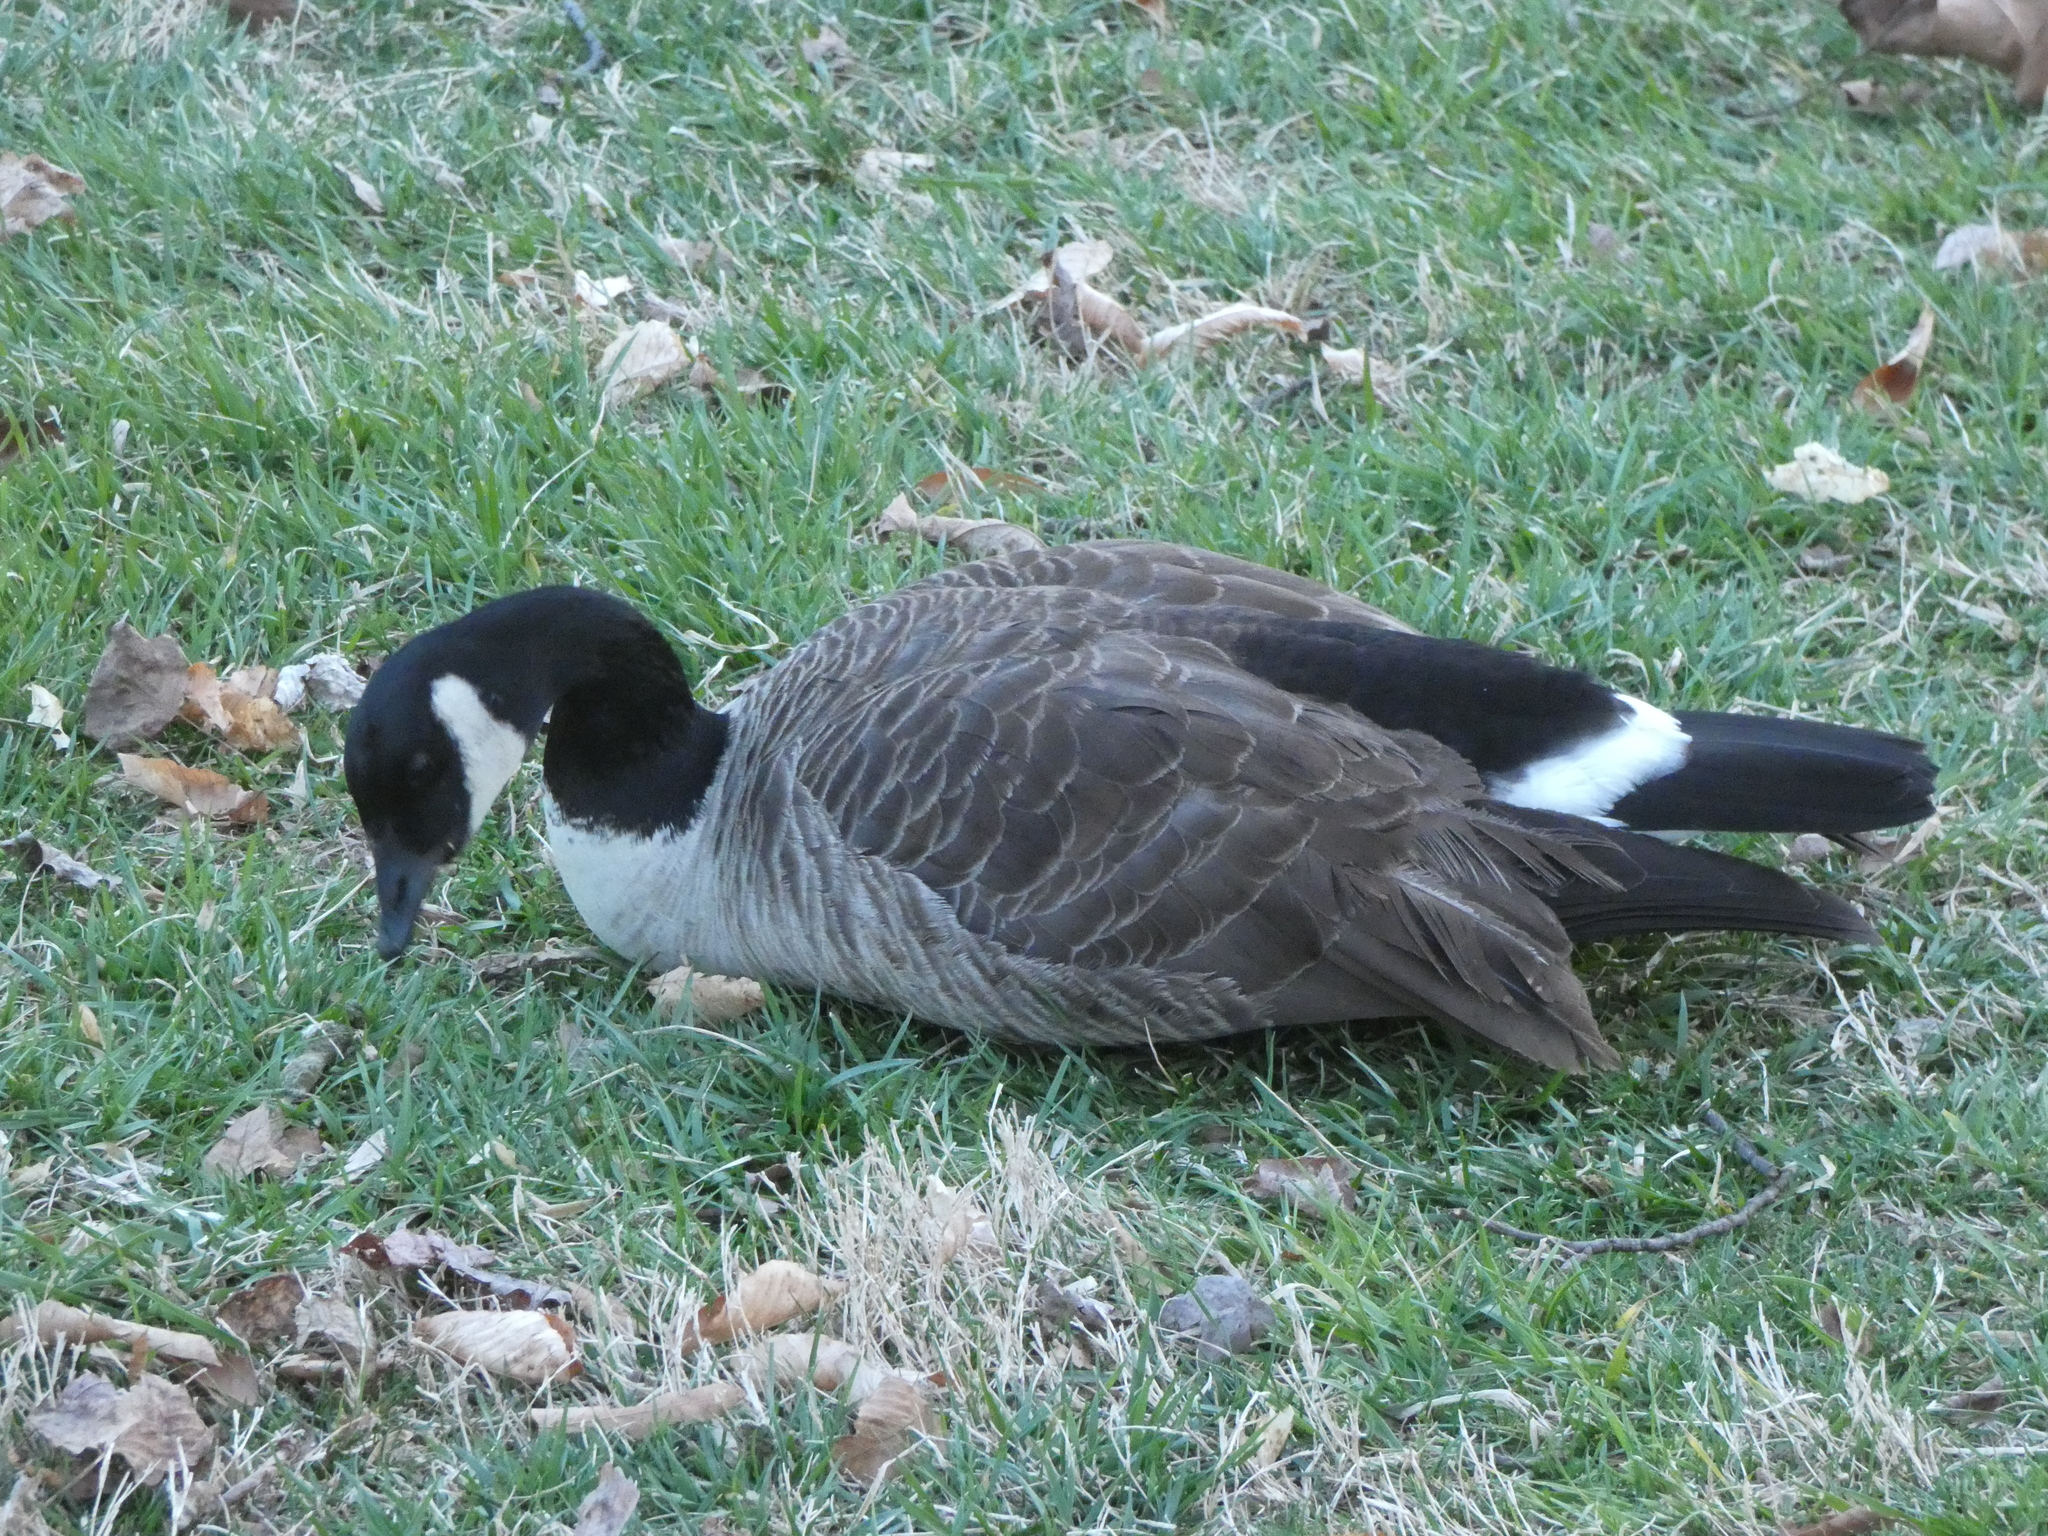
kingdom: Animalia
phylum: Chordata
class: Aves
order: Anseriformes
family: Anatidae
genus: Branta
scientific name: Branta canadensis
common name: Canada goose
